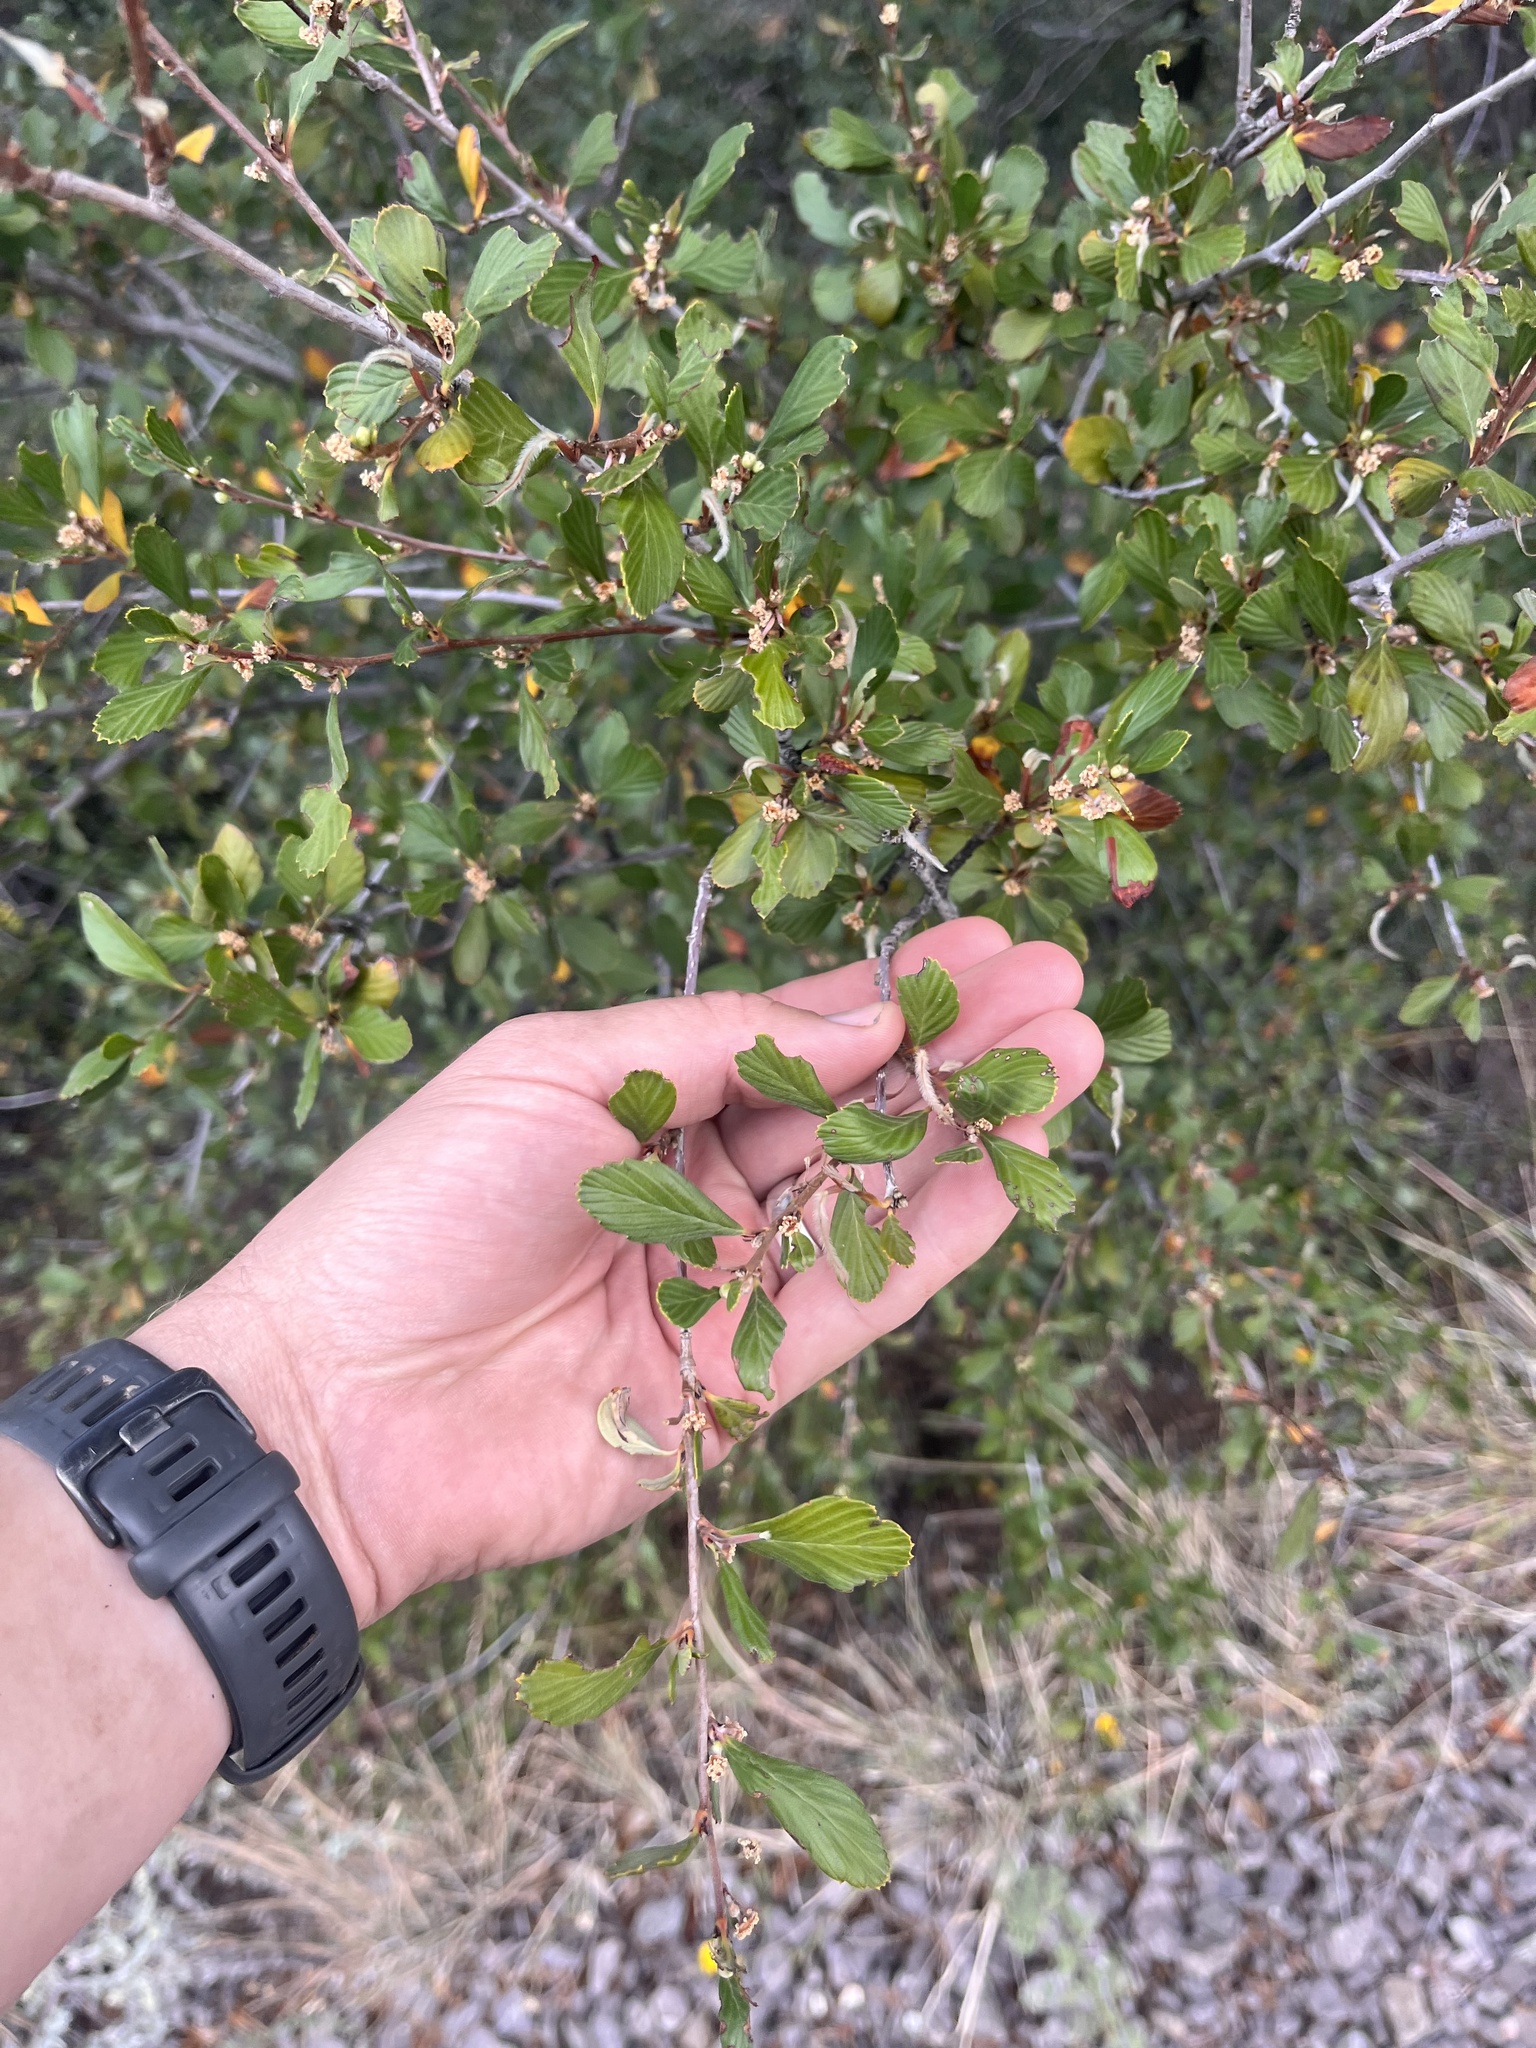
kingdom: Plantae
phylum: Tracheophyta
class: Magnoliopsida
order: Rosales
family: Rosaceae
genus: Cercocarpus
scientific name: Cercocarpus montanus
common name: Alder-leaf cercocarpus
